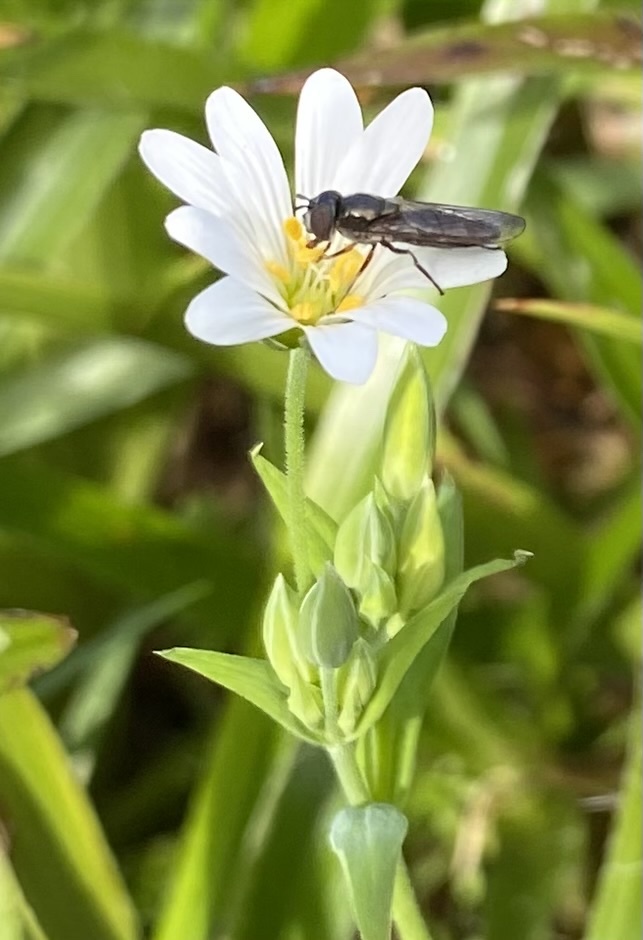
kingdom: Plantae
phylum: Tracheophyta
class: Magnoliopsida
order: Caryophyllales
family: Caryophyllaceae
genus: Rabelera
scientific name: Rabelera holostea
